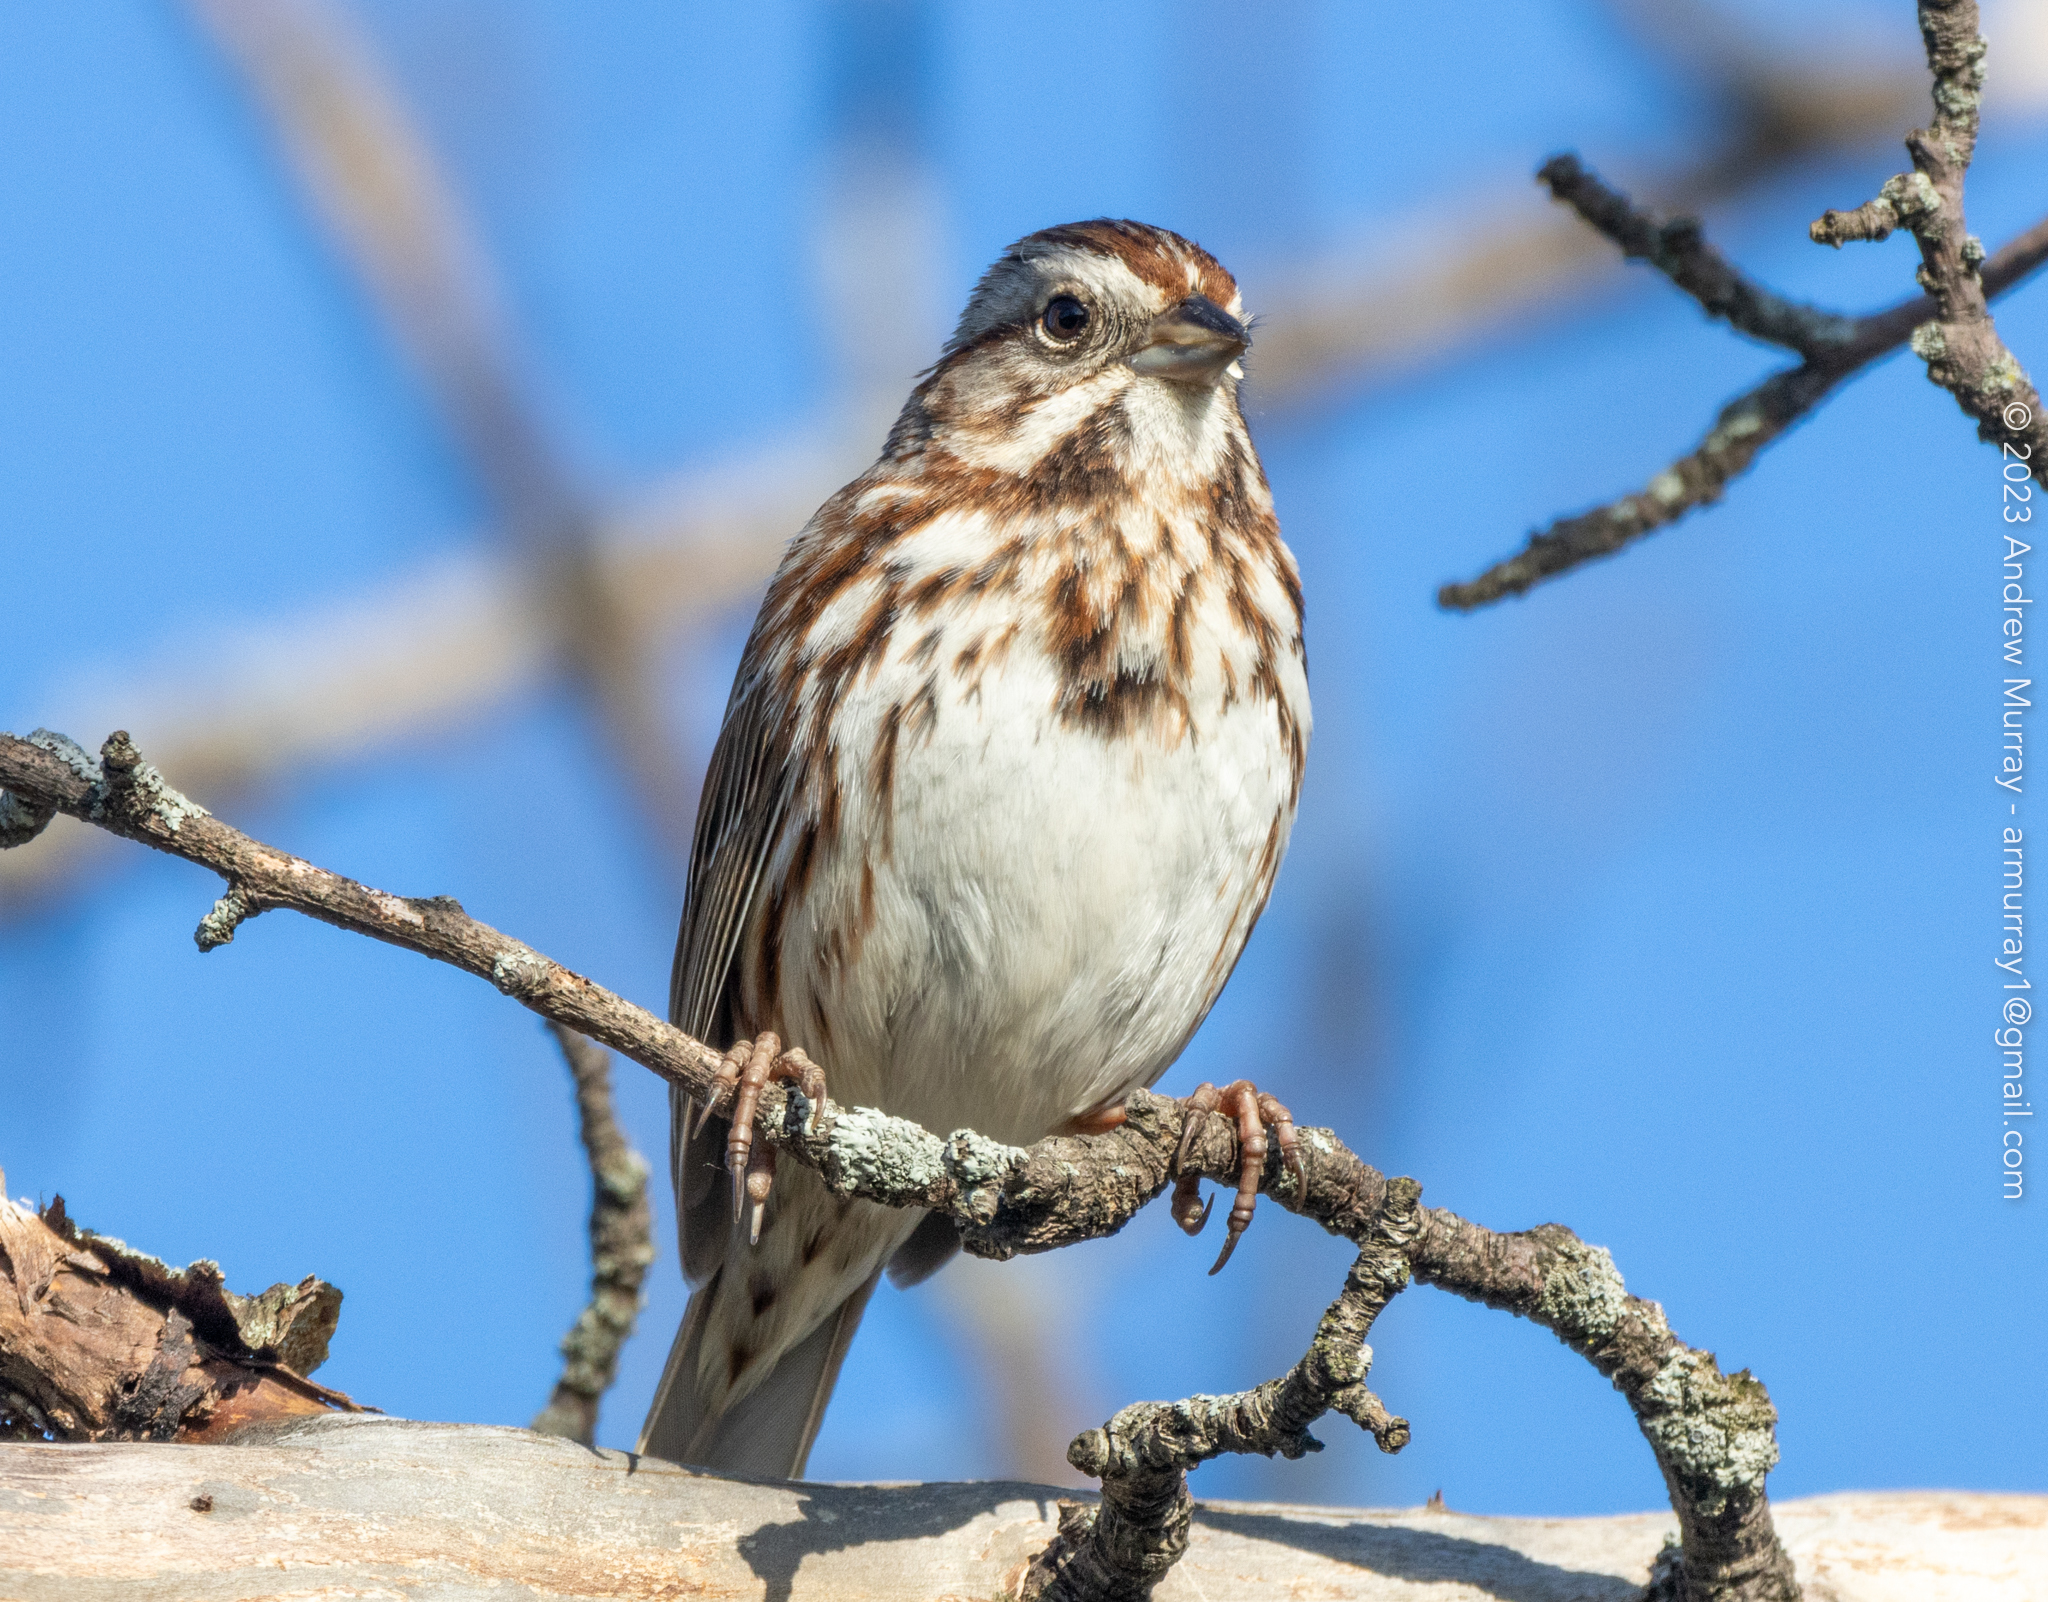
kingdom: Animalia
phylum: Chordata
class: Aves
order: Passeriformes
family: Passerellidae
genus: Melospiza
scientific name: Melospiza melodia
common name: Song sparrow
